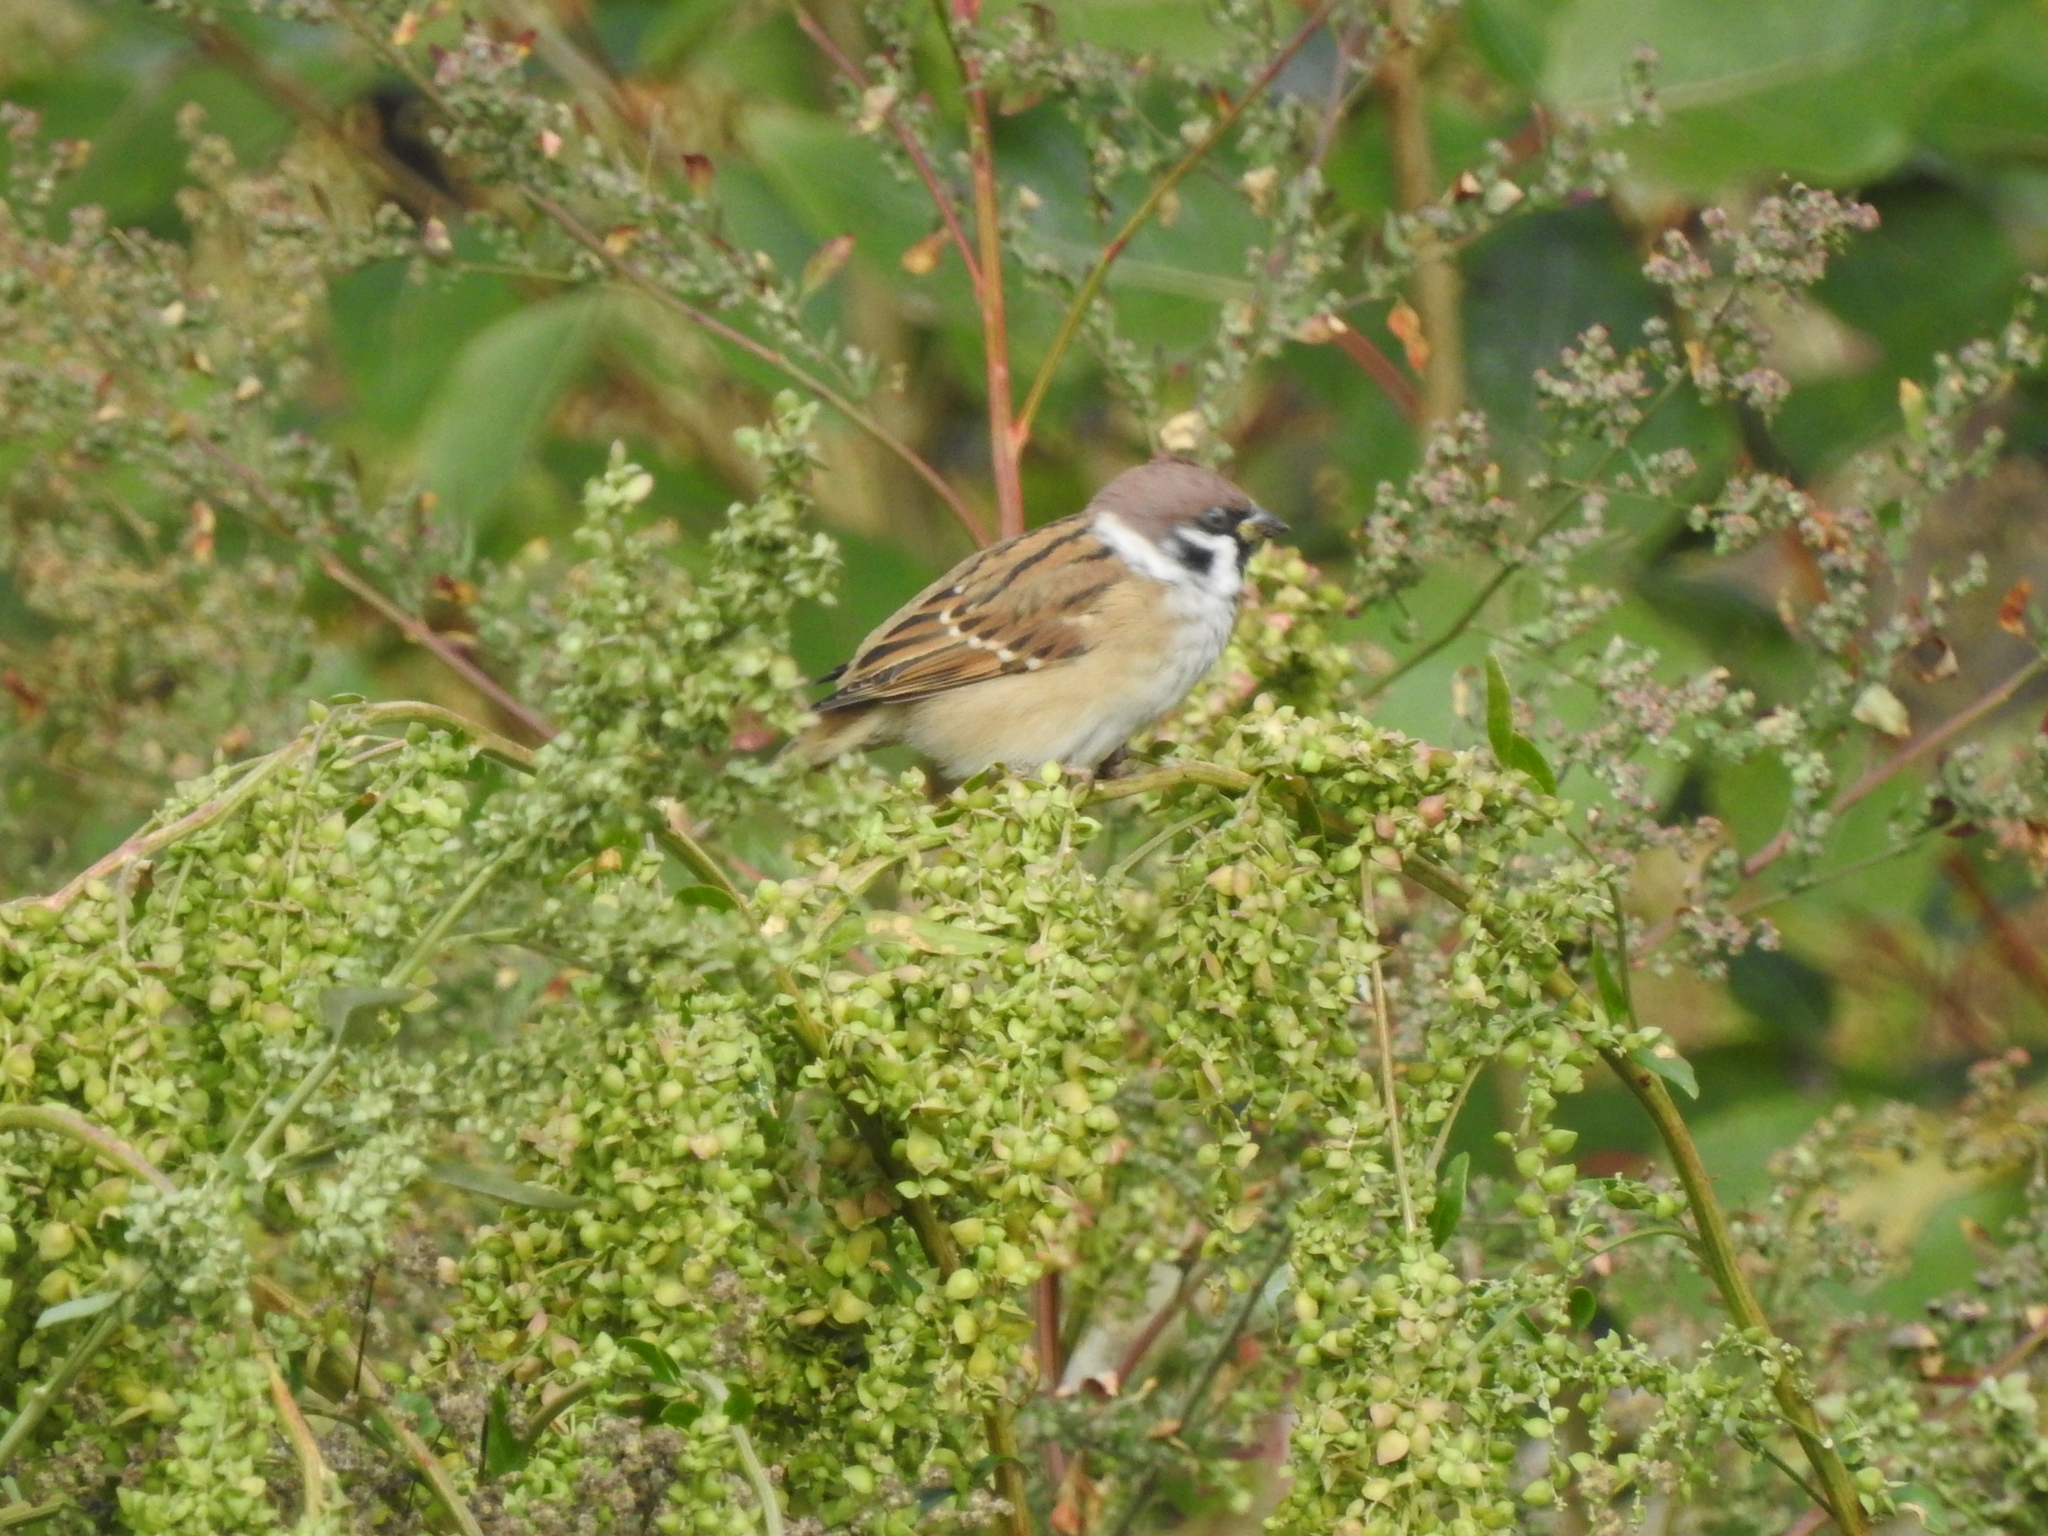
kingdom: Animalia
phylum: Chordata
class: Aves
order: Passeriformes
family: Passeridae
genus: Passer
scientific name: Passer montanus
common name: Eurasian tree sparrow
